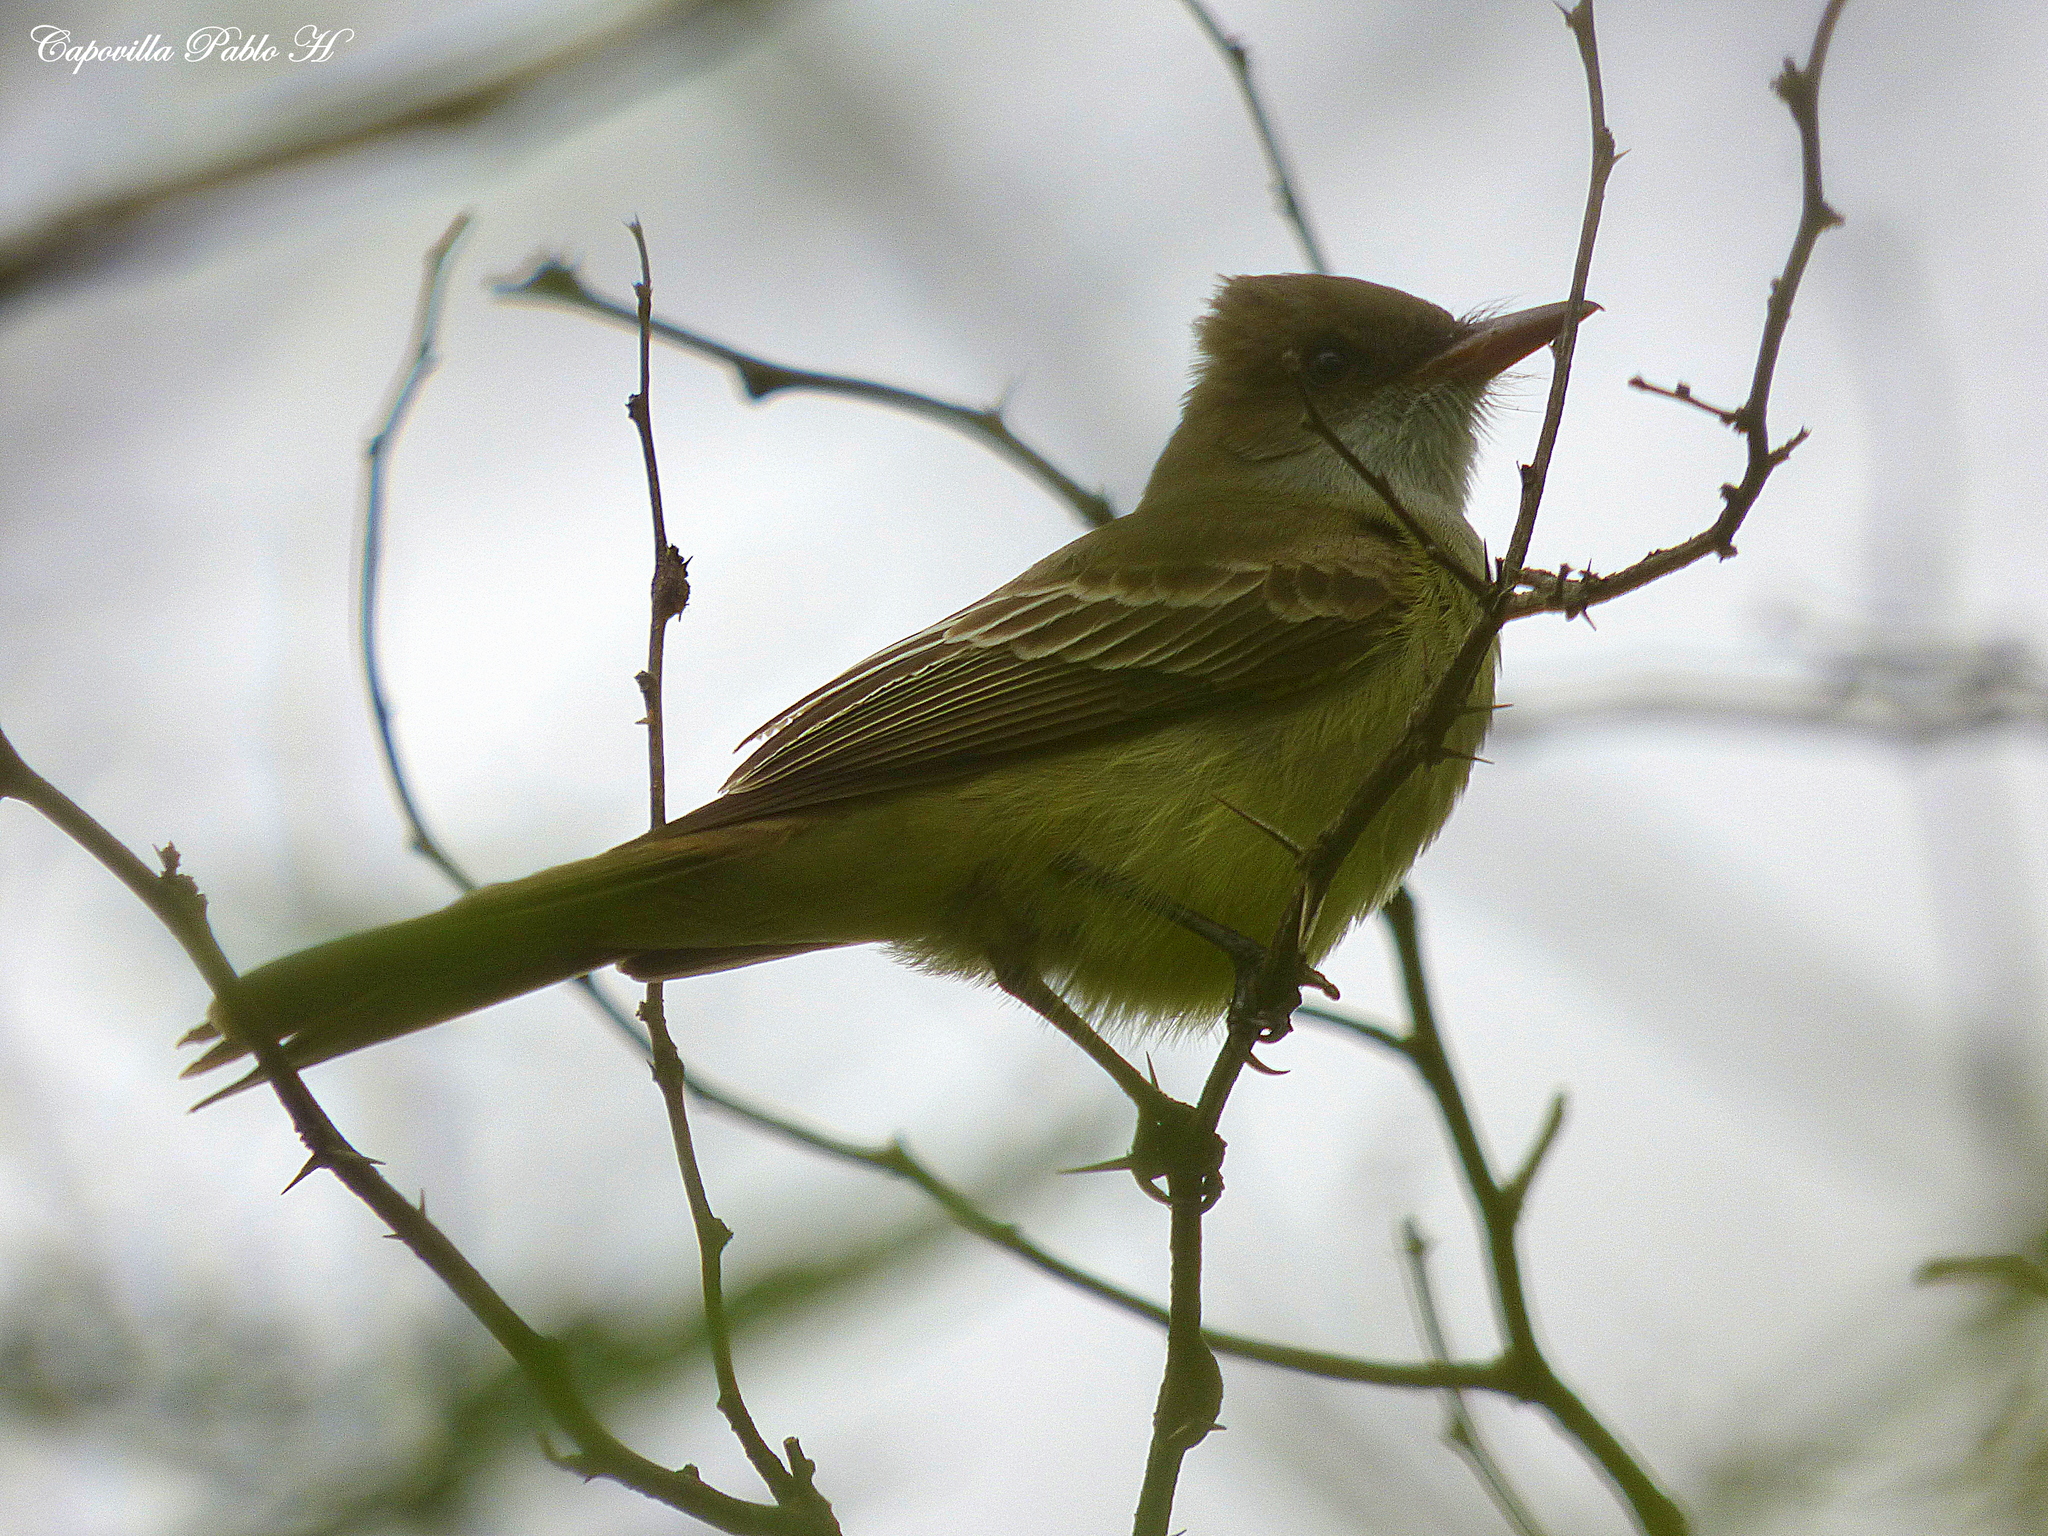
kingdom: Animalia
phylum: Chordata
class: Aves
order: Passeriformes
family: Tyrannidae
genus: Myiarchus
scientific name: Myiarchus swainsoni
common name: Swainson's flycatcher
